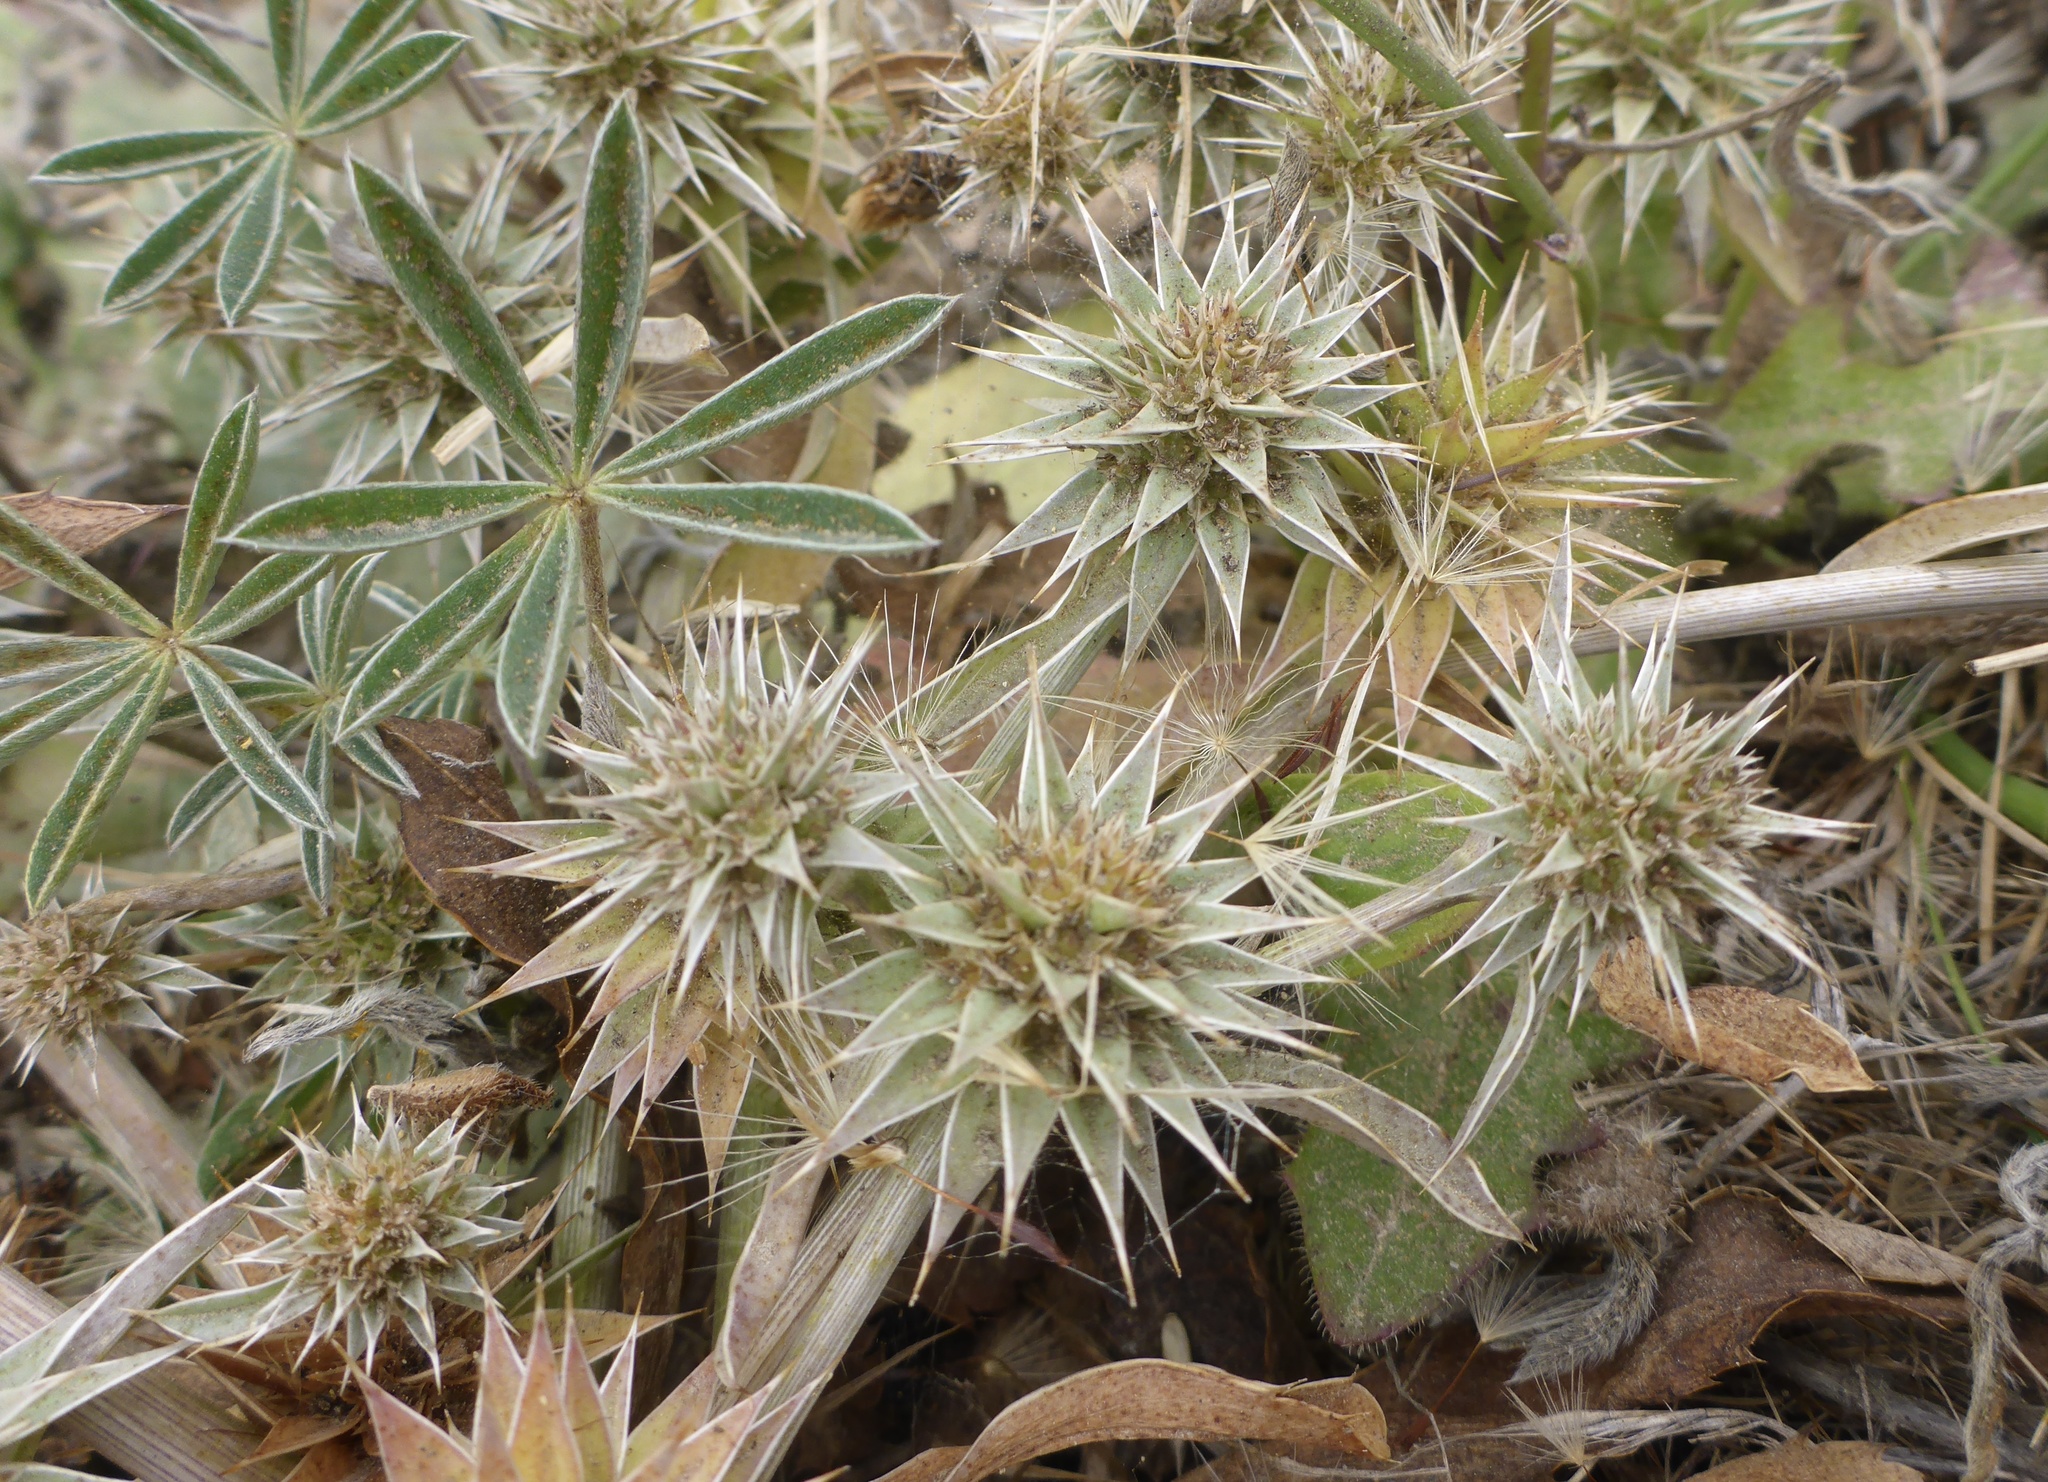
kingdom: Plantae
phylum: Tracheophyta
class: Magnoliopsida
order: Apiales
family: Apiaceae
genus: Eryngium
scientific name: Eryngium armatum
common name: Coyote thistle
